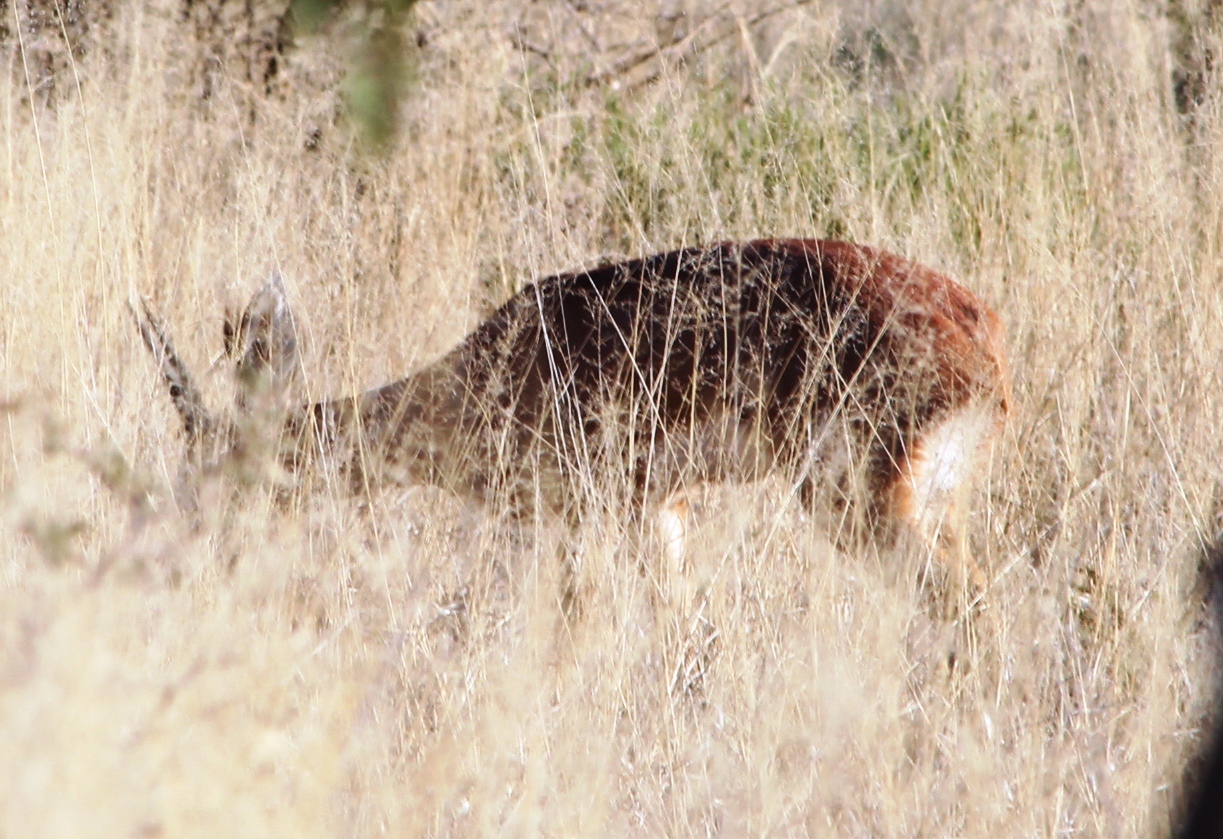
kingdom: Animalia
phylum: Chordata
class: Mammalia
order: Artiodactyla
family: Bovidae
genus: Raphicerus
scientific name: Raphicerus campestris
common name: Steenbok
